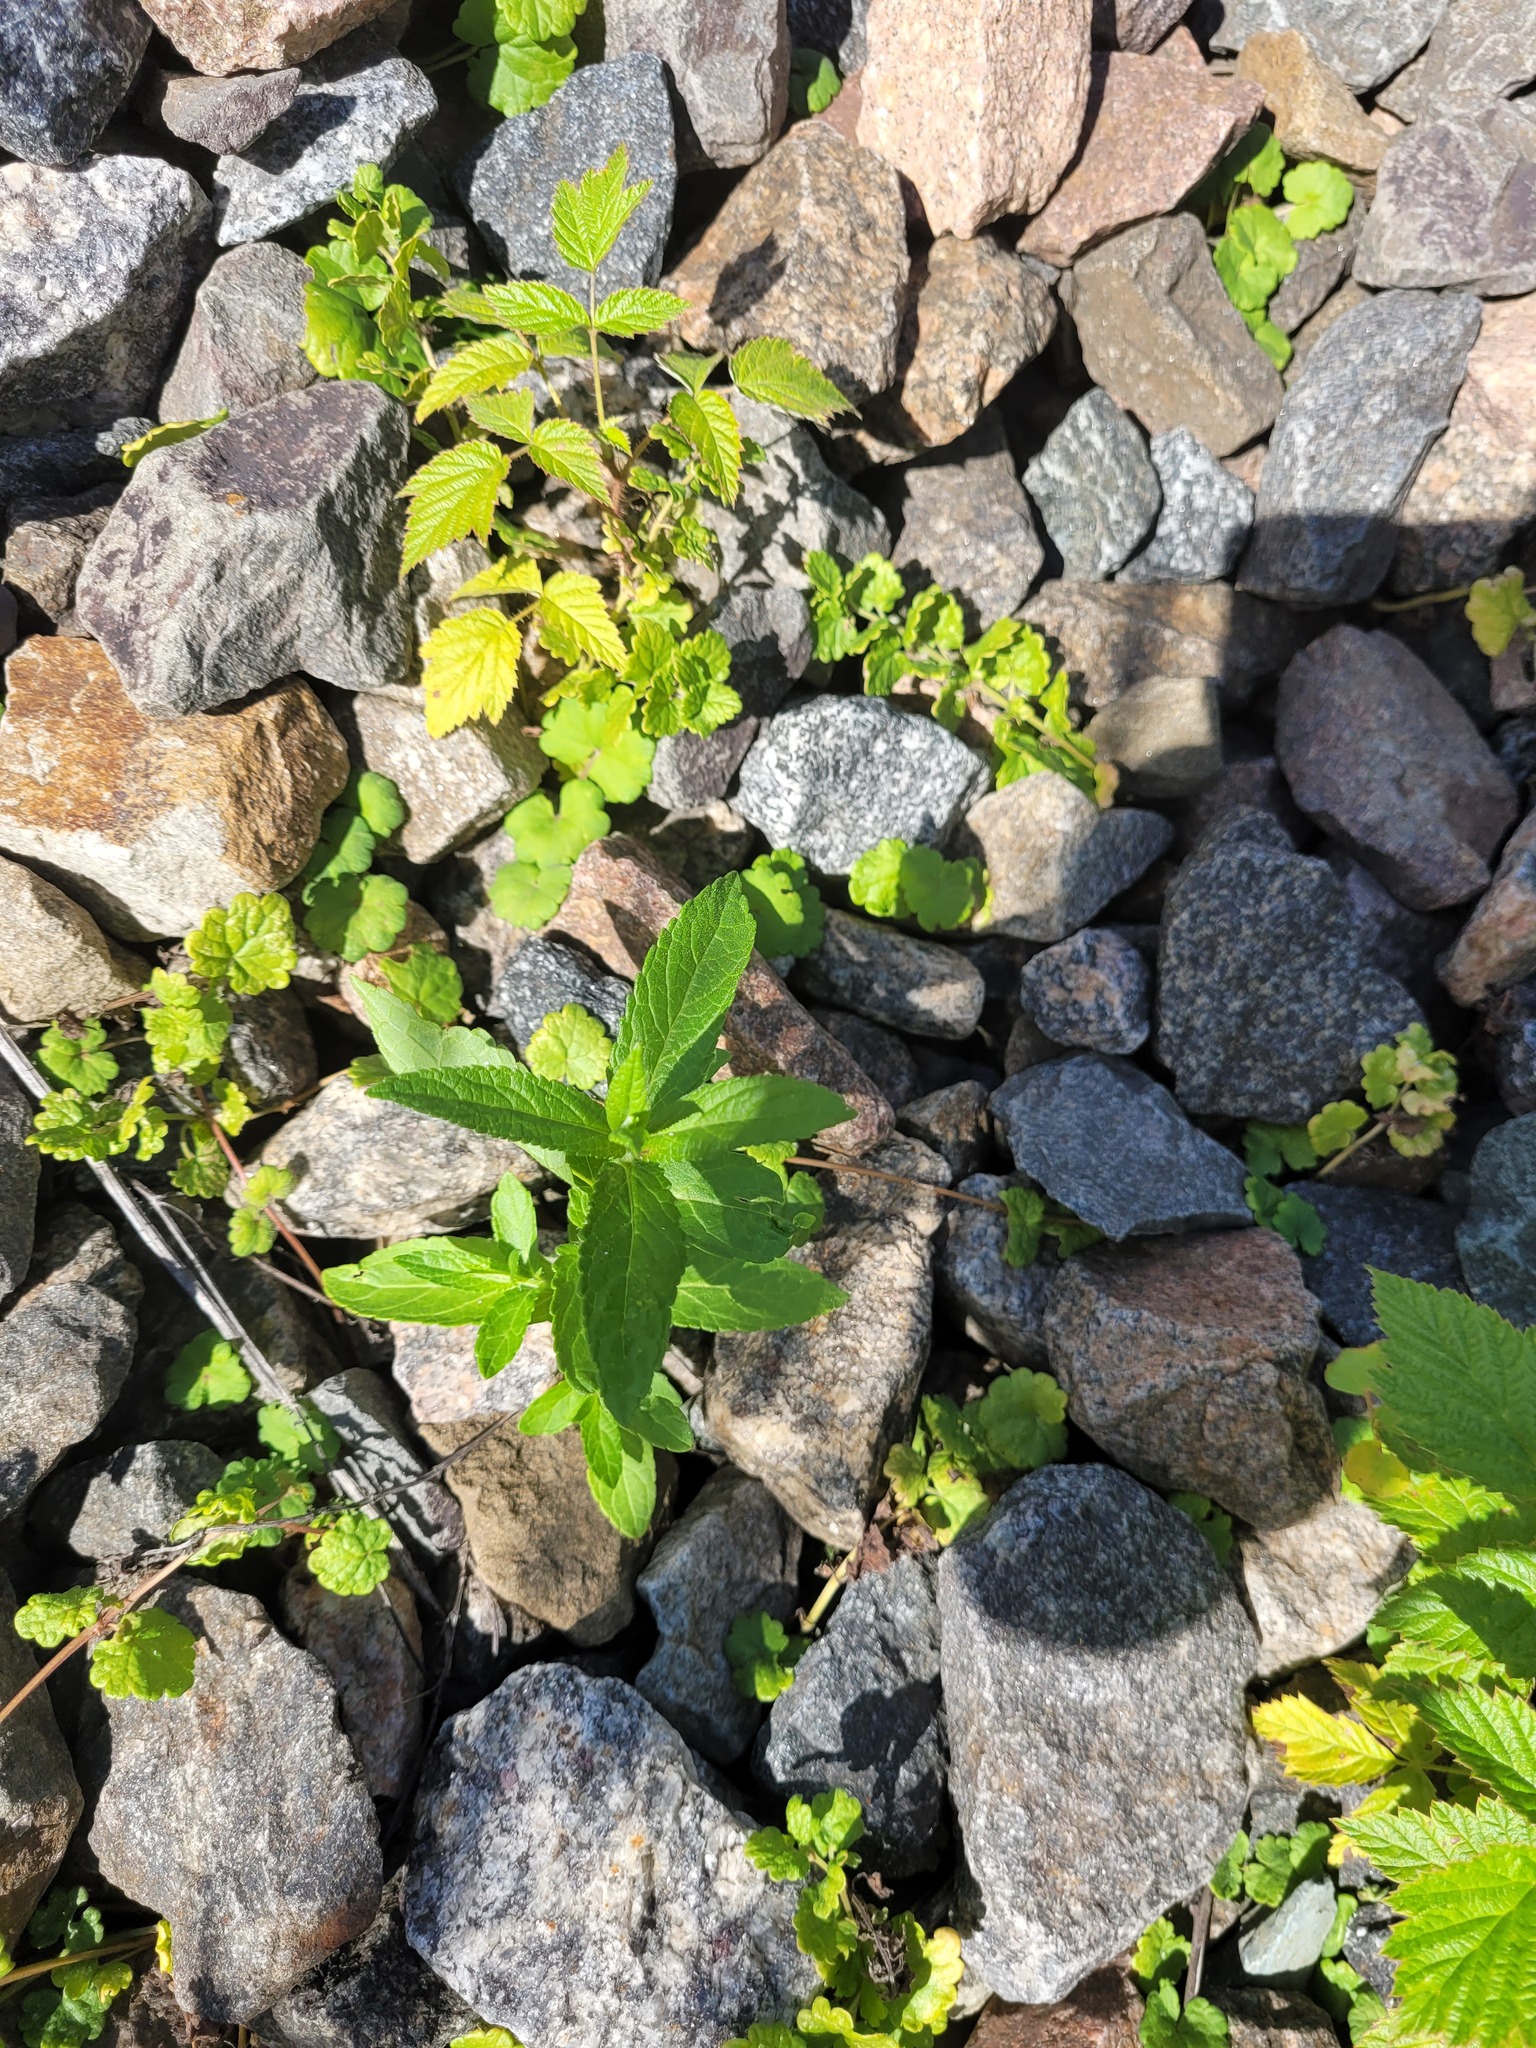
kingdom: Plantae
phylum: Tracheophyta
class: Magnoliopsida
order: Lamiales
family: Lamiaceae
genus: Stachys
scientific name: Stachys palustris
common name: Marsh woundwort
